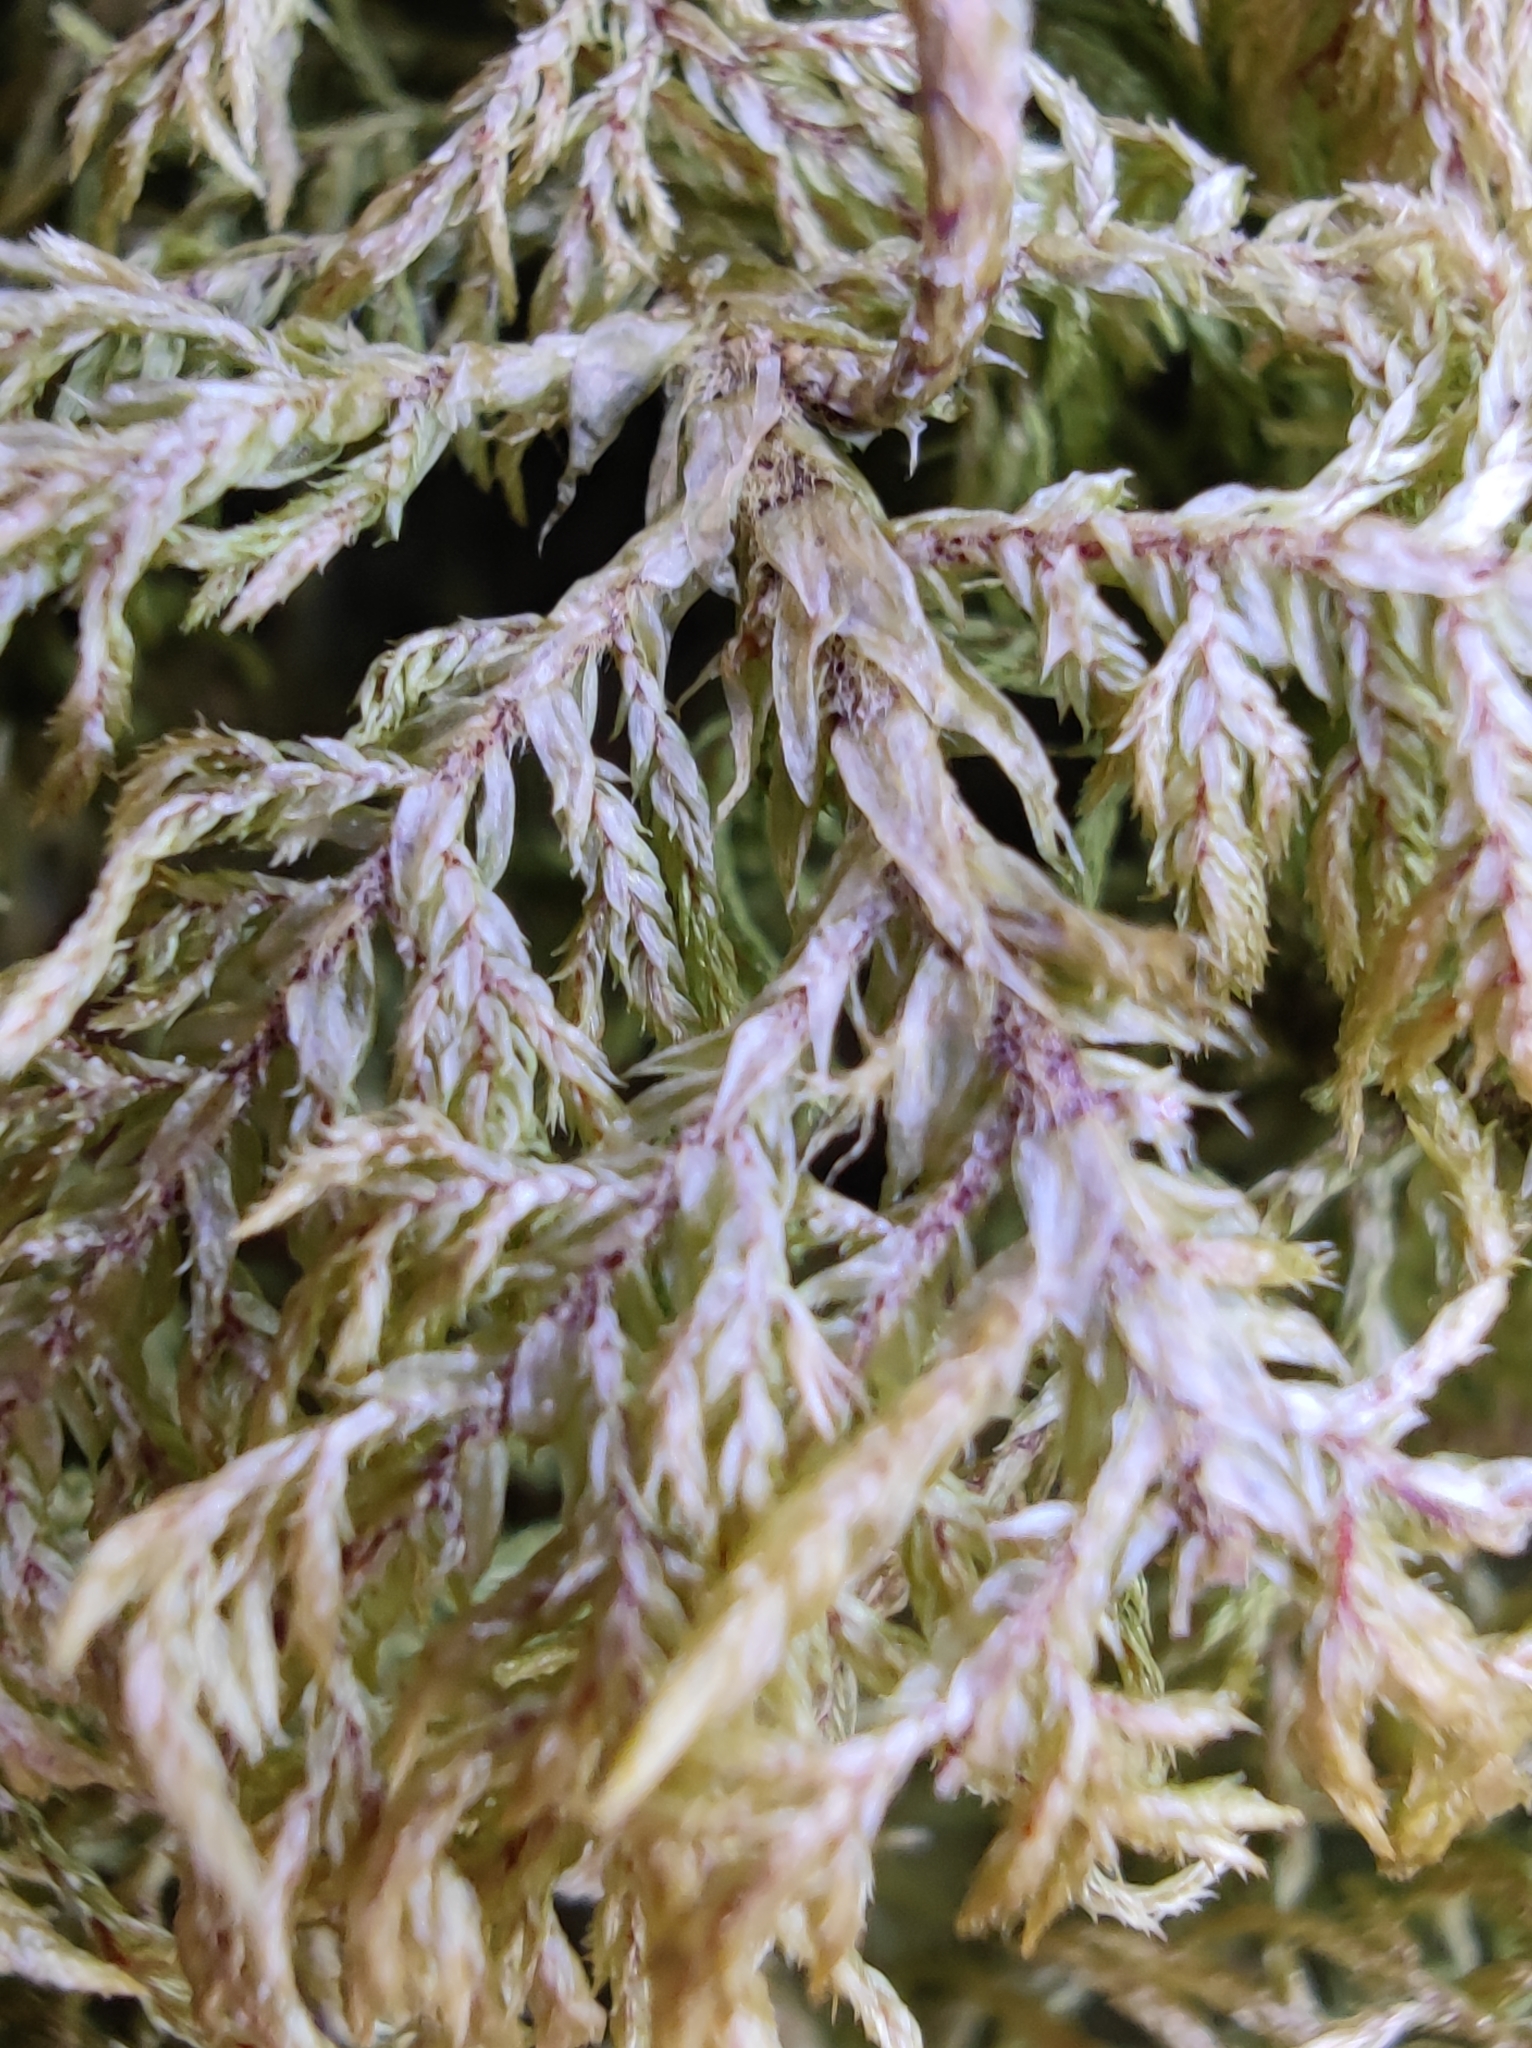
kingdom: Plantae
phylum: Bryophyta
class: Bryopsida
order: Hypnales
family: Hylocomiaceae
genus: Hylocomium
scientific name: Hylocomium splendens
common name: Stairstep moss
